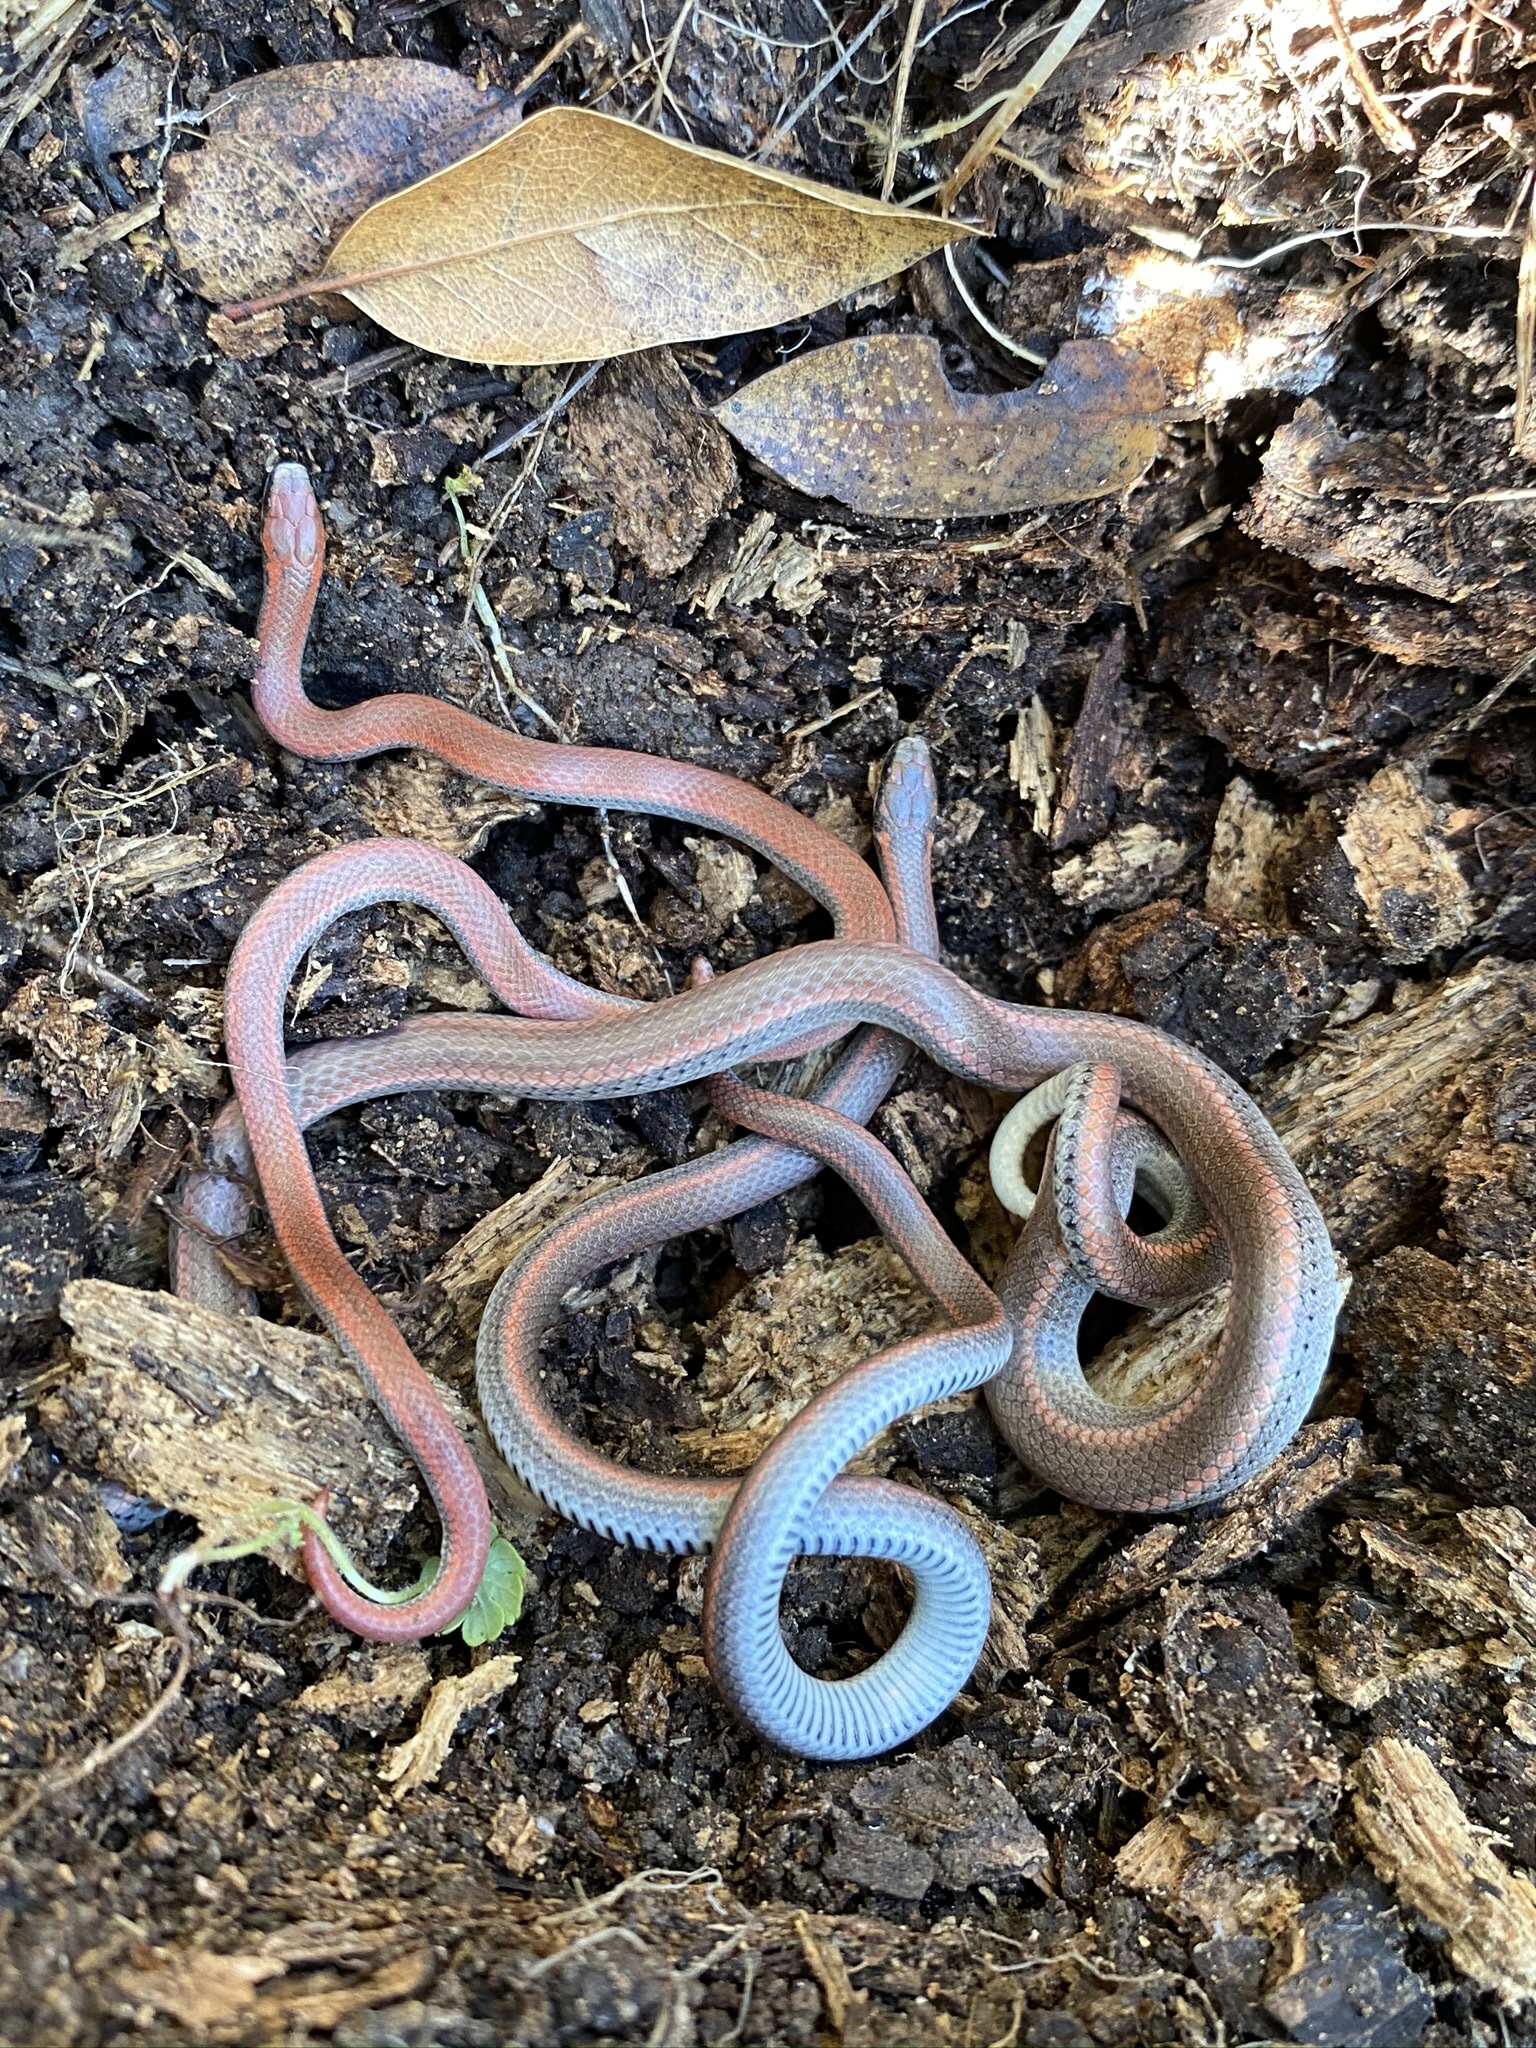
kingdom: Animalia
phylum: Chordata
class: Squamata
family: Colubridae
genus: Contia
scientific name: Contia tenuis
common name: Sharptail snake
